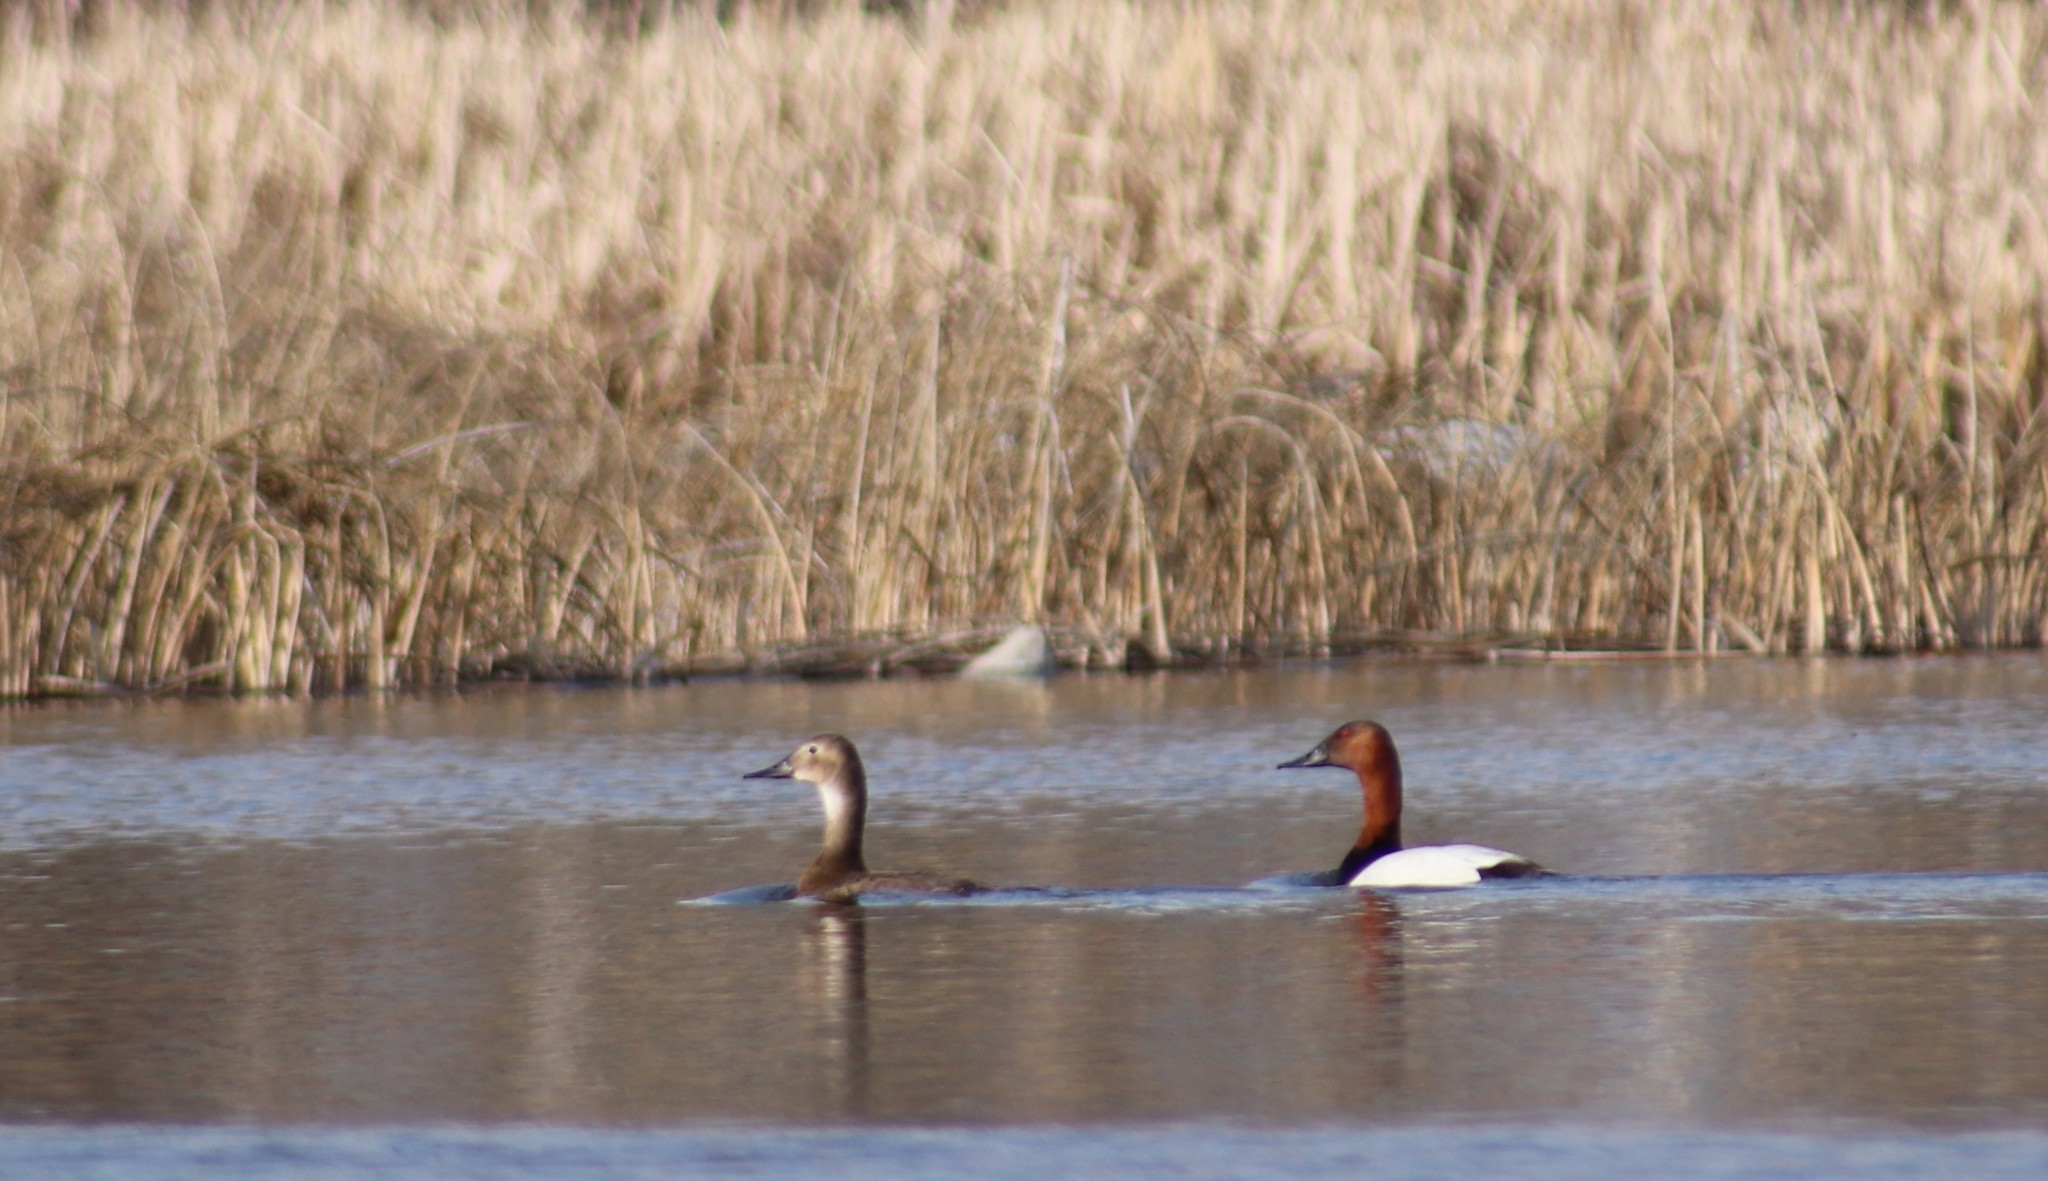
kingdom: Animalia
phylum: Chordata
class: Aves
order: Anseriformes
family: Anatidae
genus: Aythya
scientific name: Aythya valisineria
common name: Canvasback
